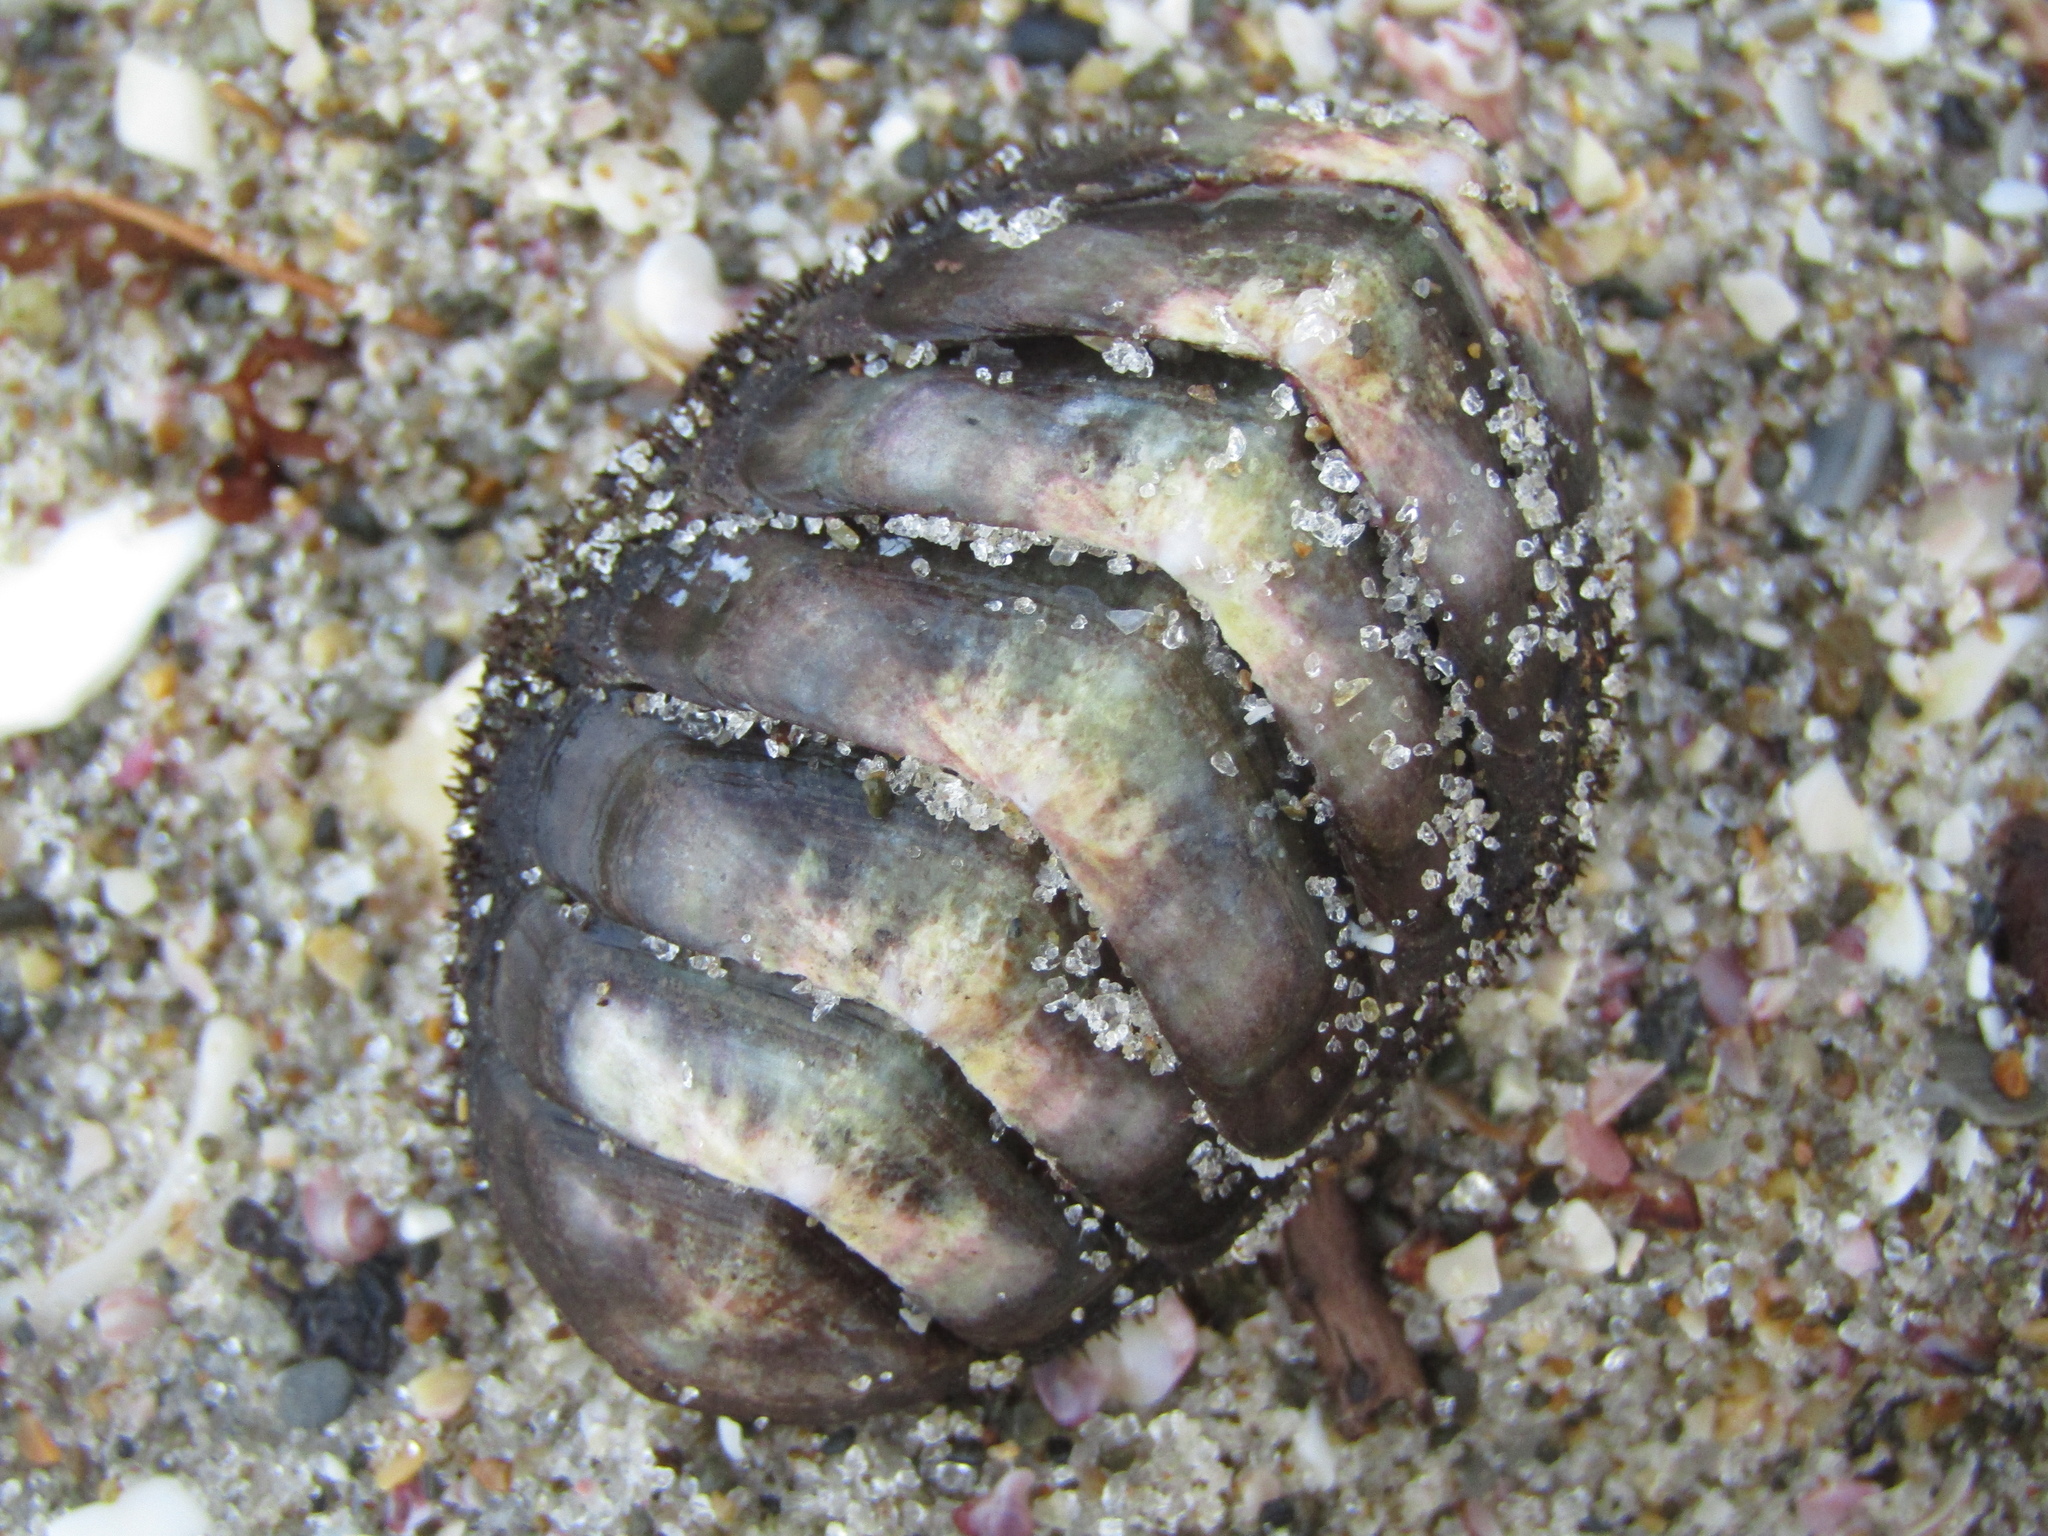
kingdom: Animalia
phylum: Mollusca
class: Polyplacophora
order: Callochitonida
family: Callochitonidae
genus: Eudoxochiton
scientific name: Eudoxochiton nobilis
